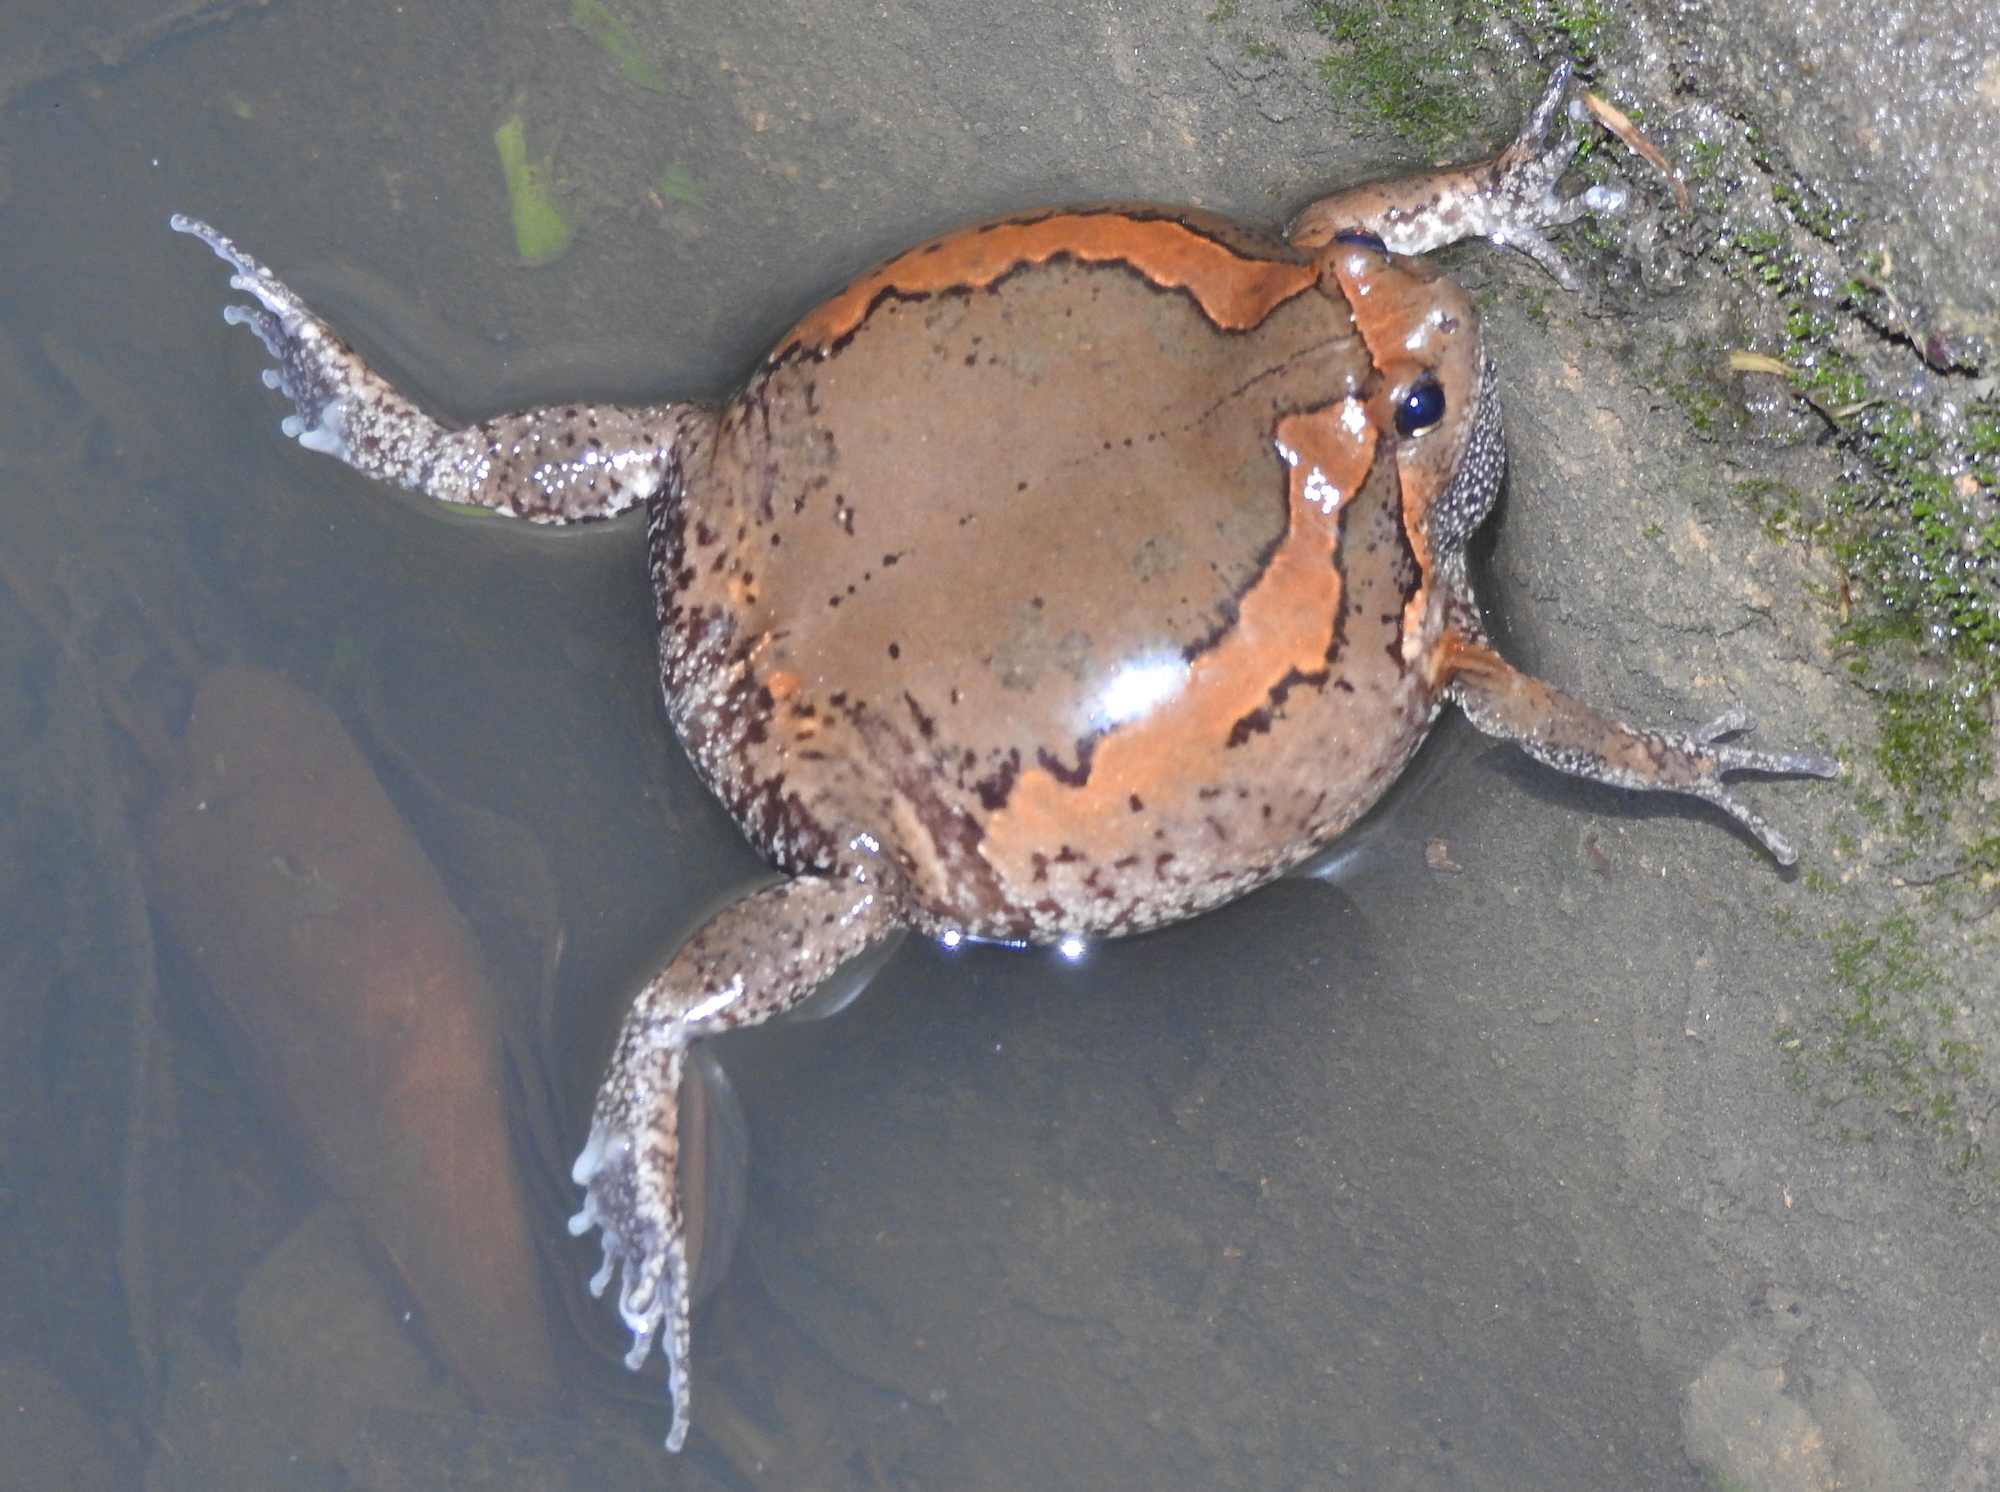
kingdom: Animalia
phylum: Chordata
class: Amphibia
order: Anura
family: Microhylidae
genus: Kaloula
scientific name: Kaloula pulchra
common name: Common,banded bullfrog
